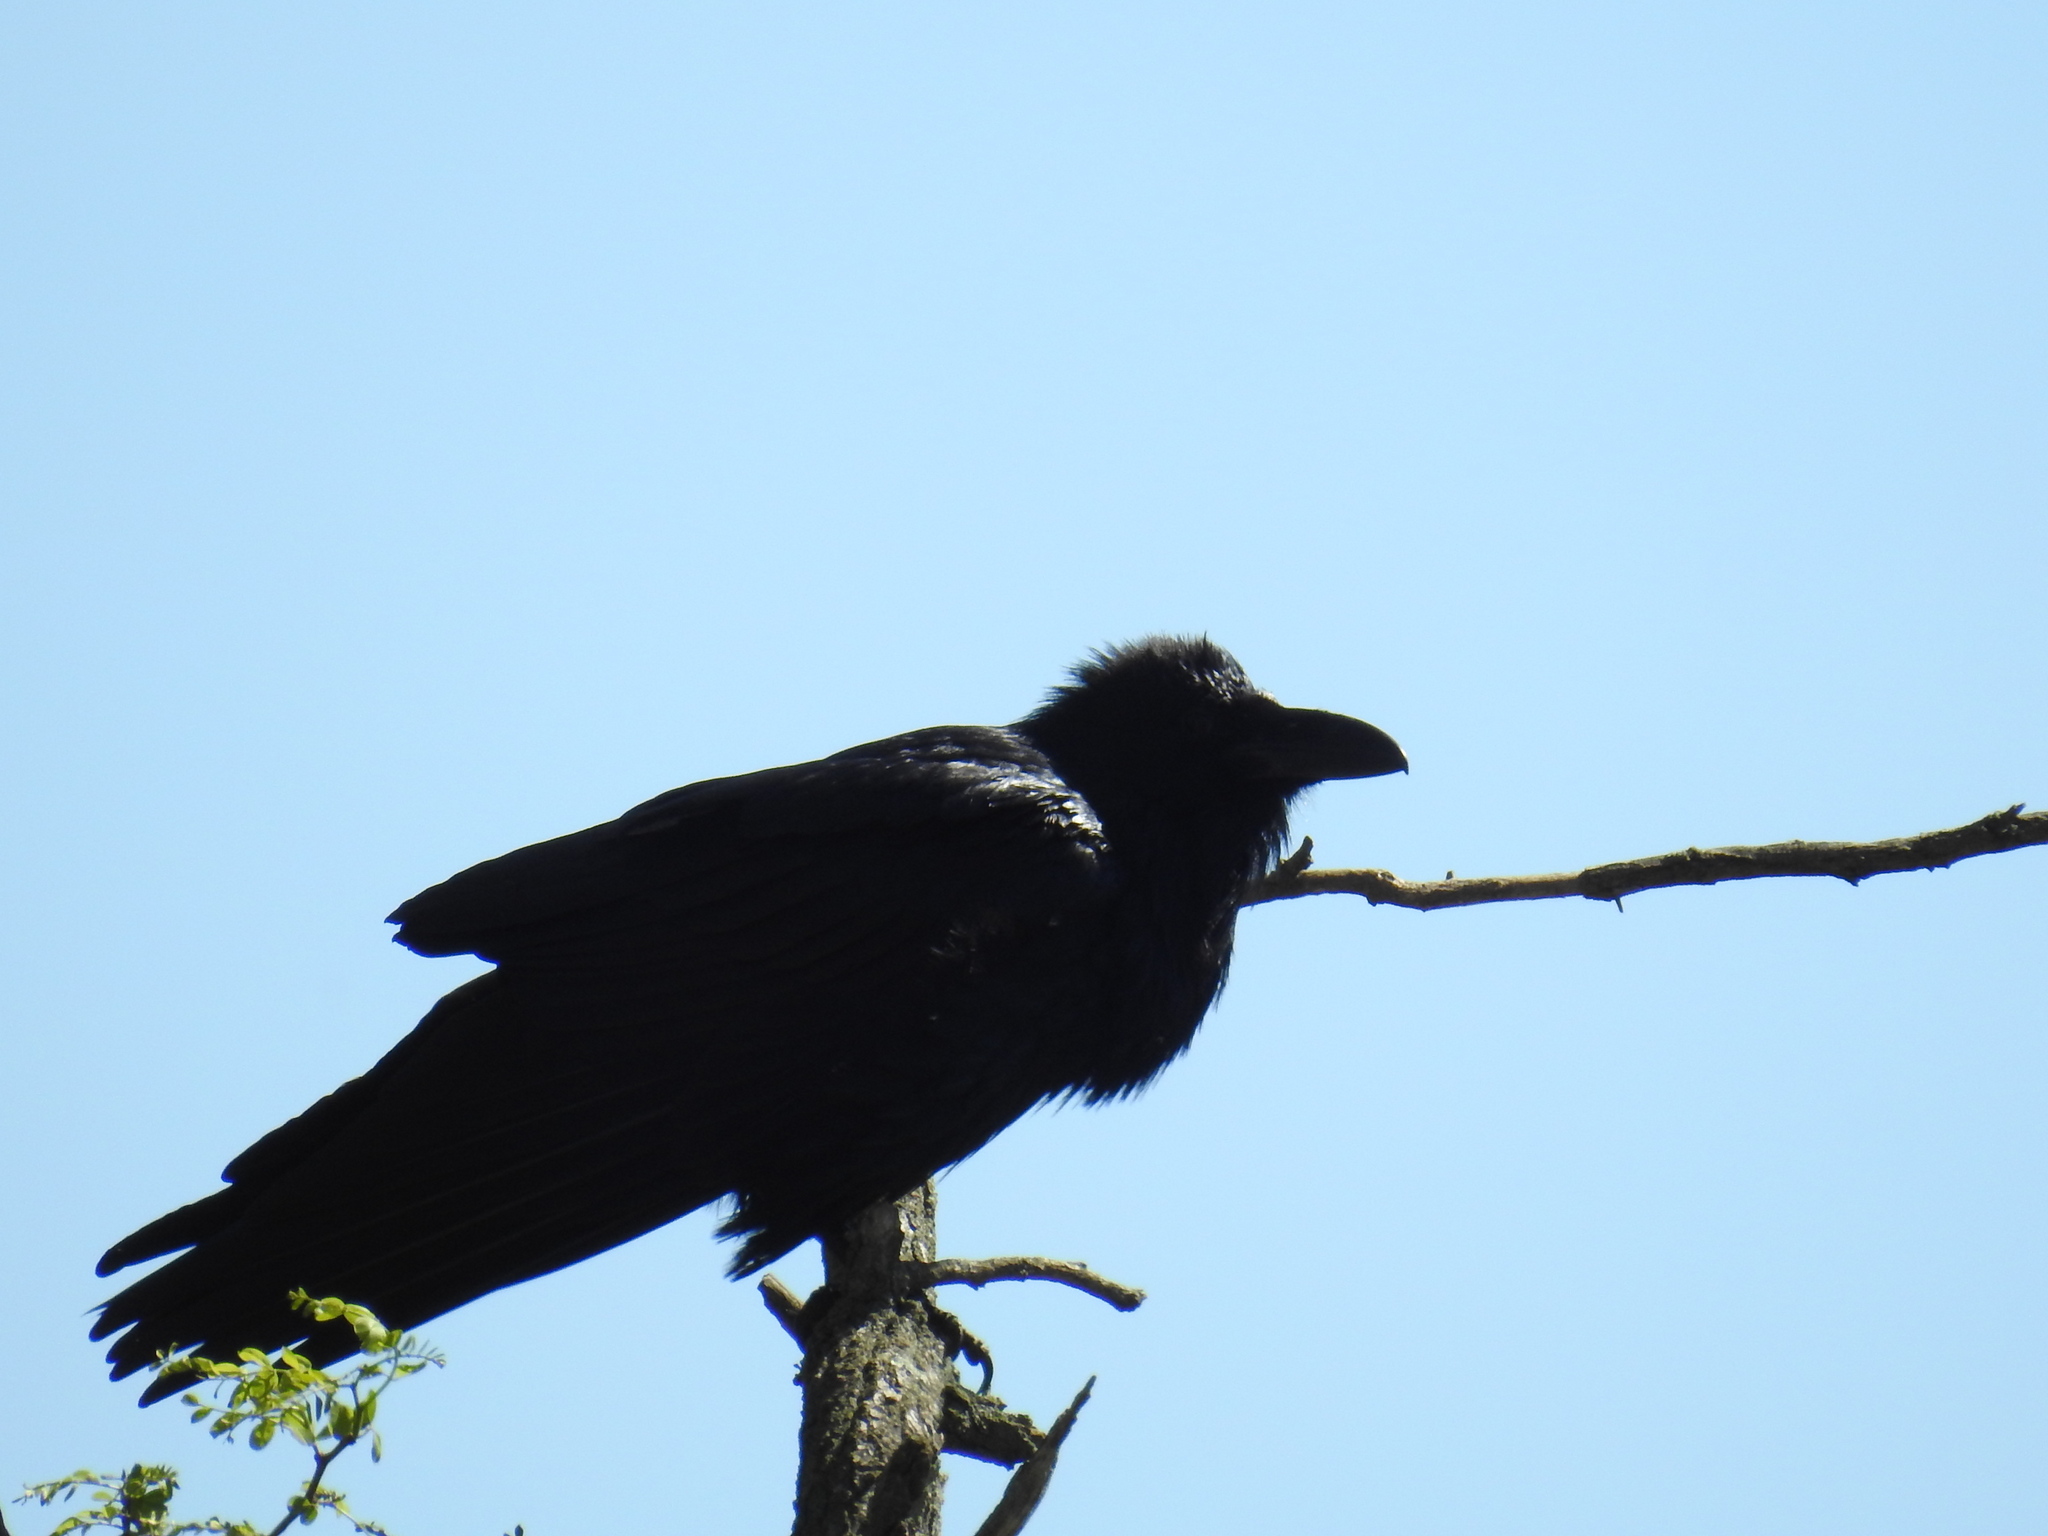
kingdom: Animalia
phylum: Chordata
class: Aves
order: Passeriformes
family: Corvidae
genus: Corvus
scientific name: Corvus corax
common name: Common raven
